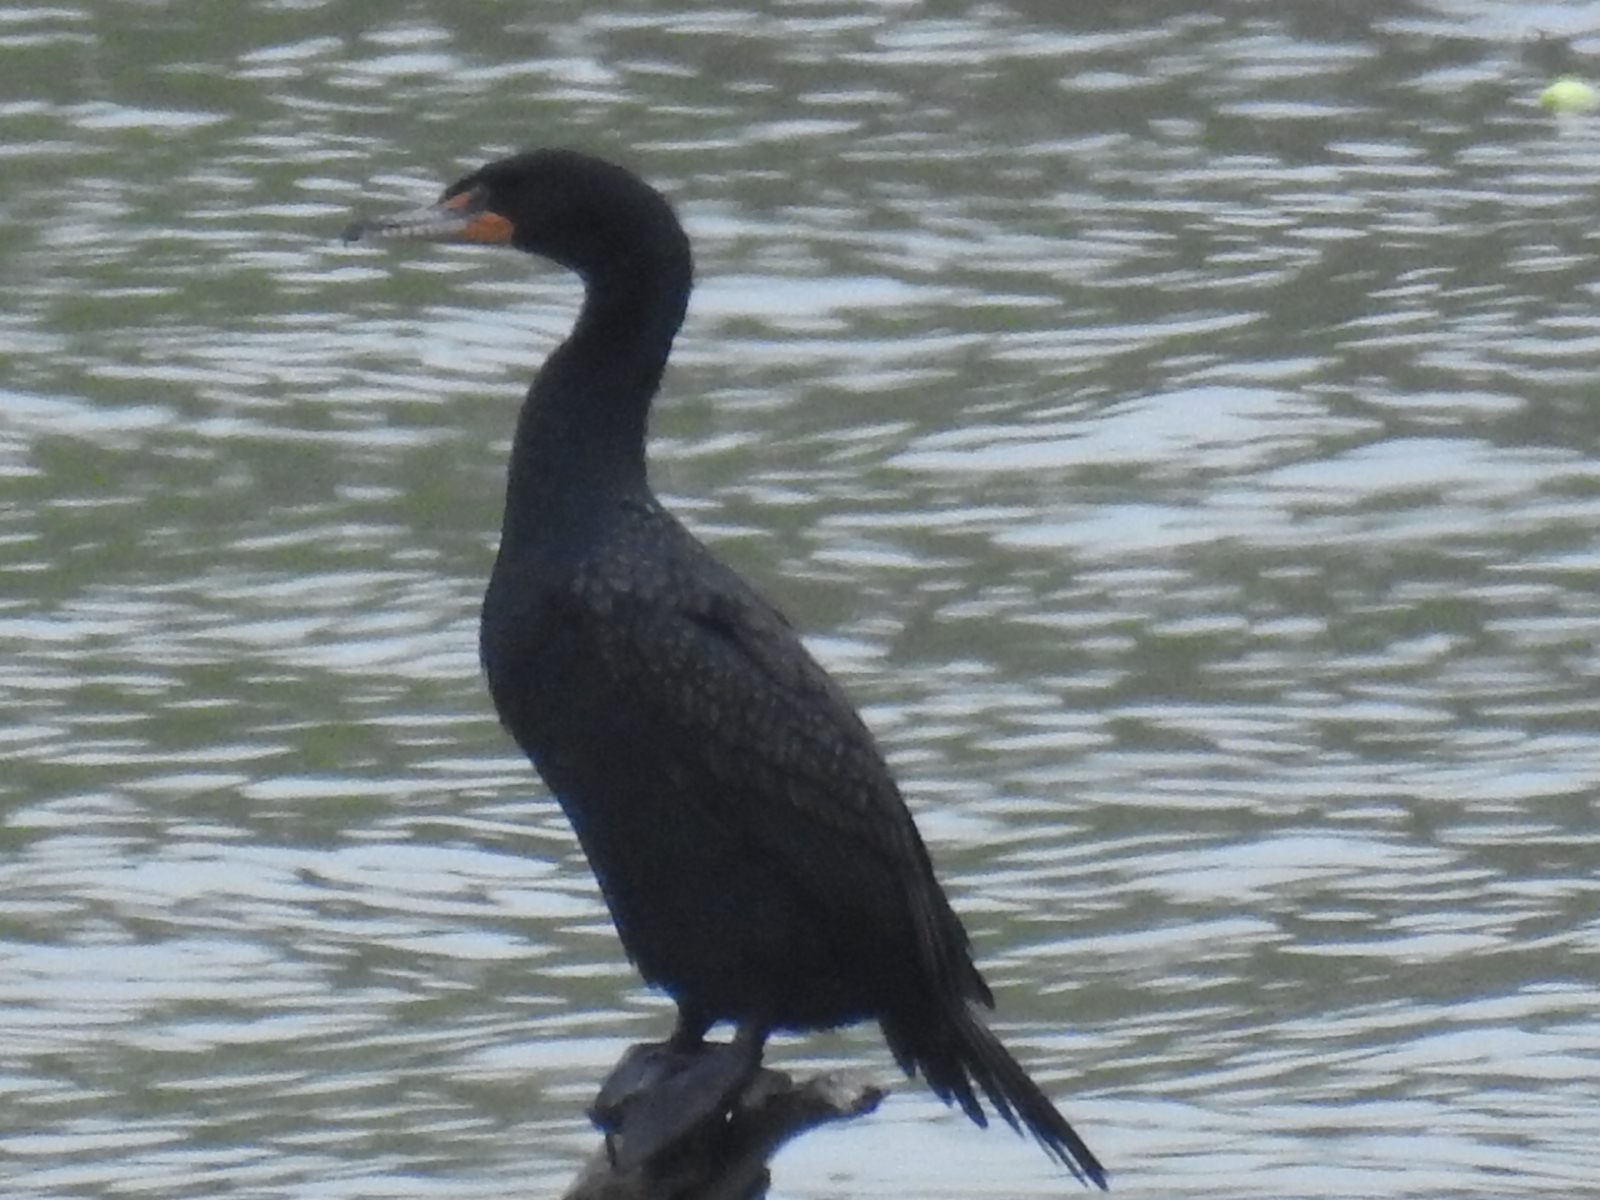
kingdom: Animalia
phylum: Chordata
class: Aves
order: Suliformes
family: Phalacrocoracidae
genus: Phalacrocorax
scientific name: Phalacrocorax auritus
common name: Double-crested cormorant
